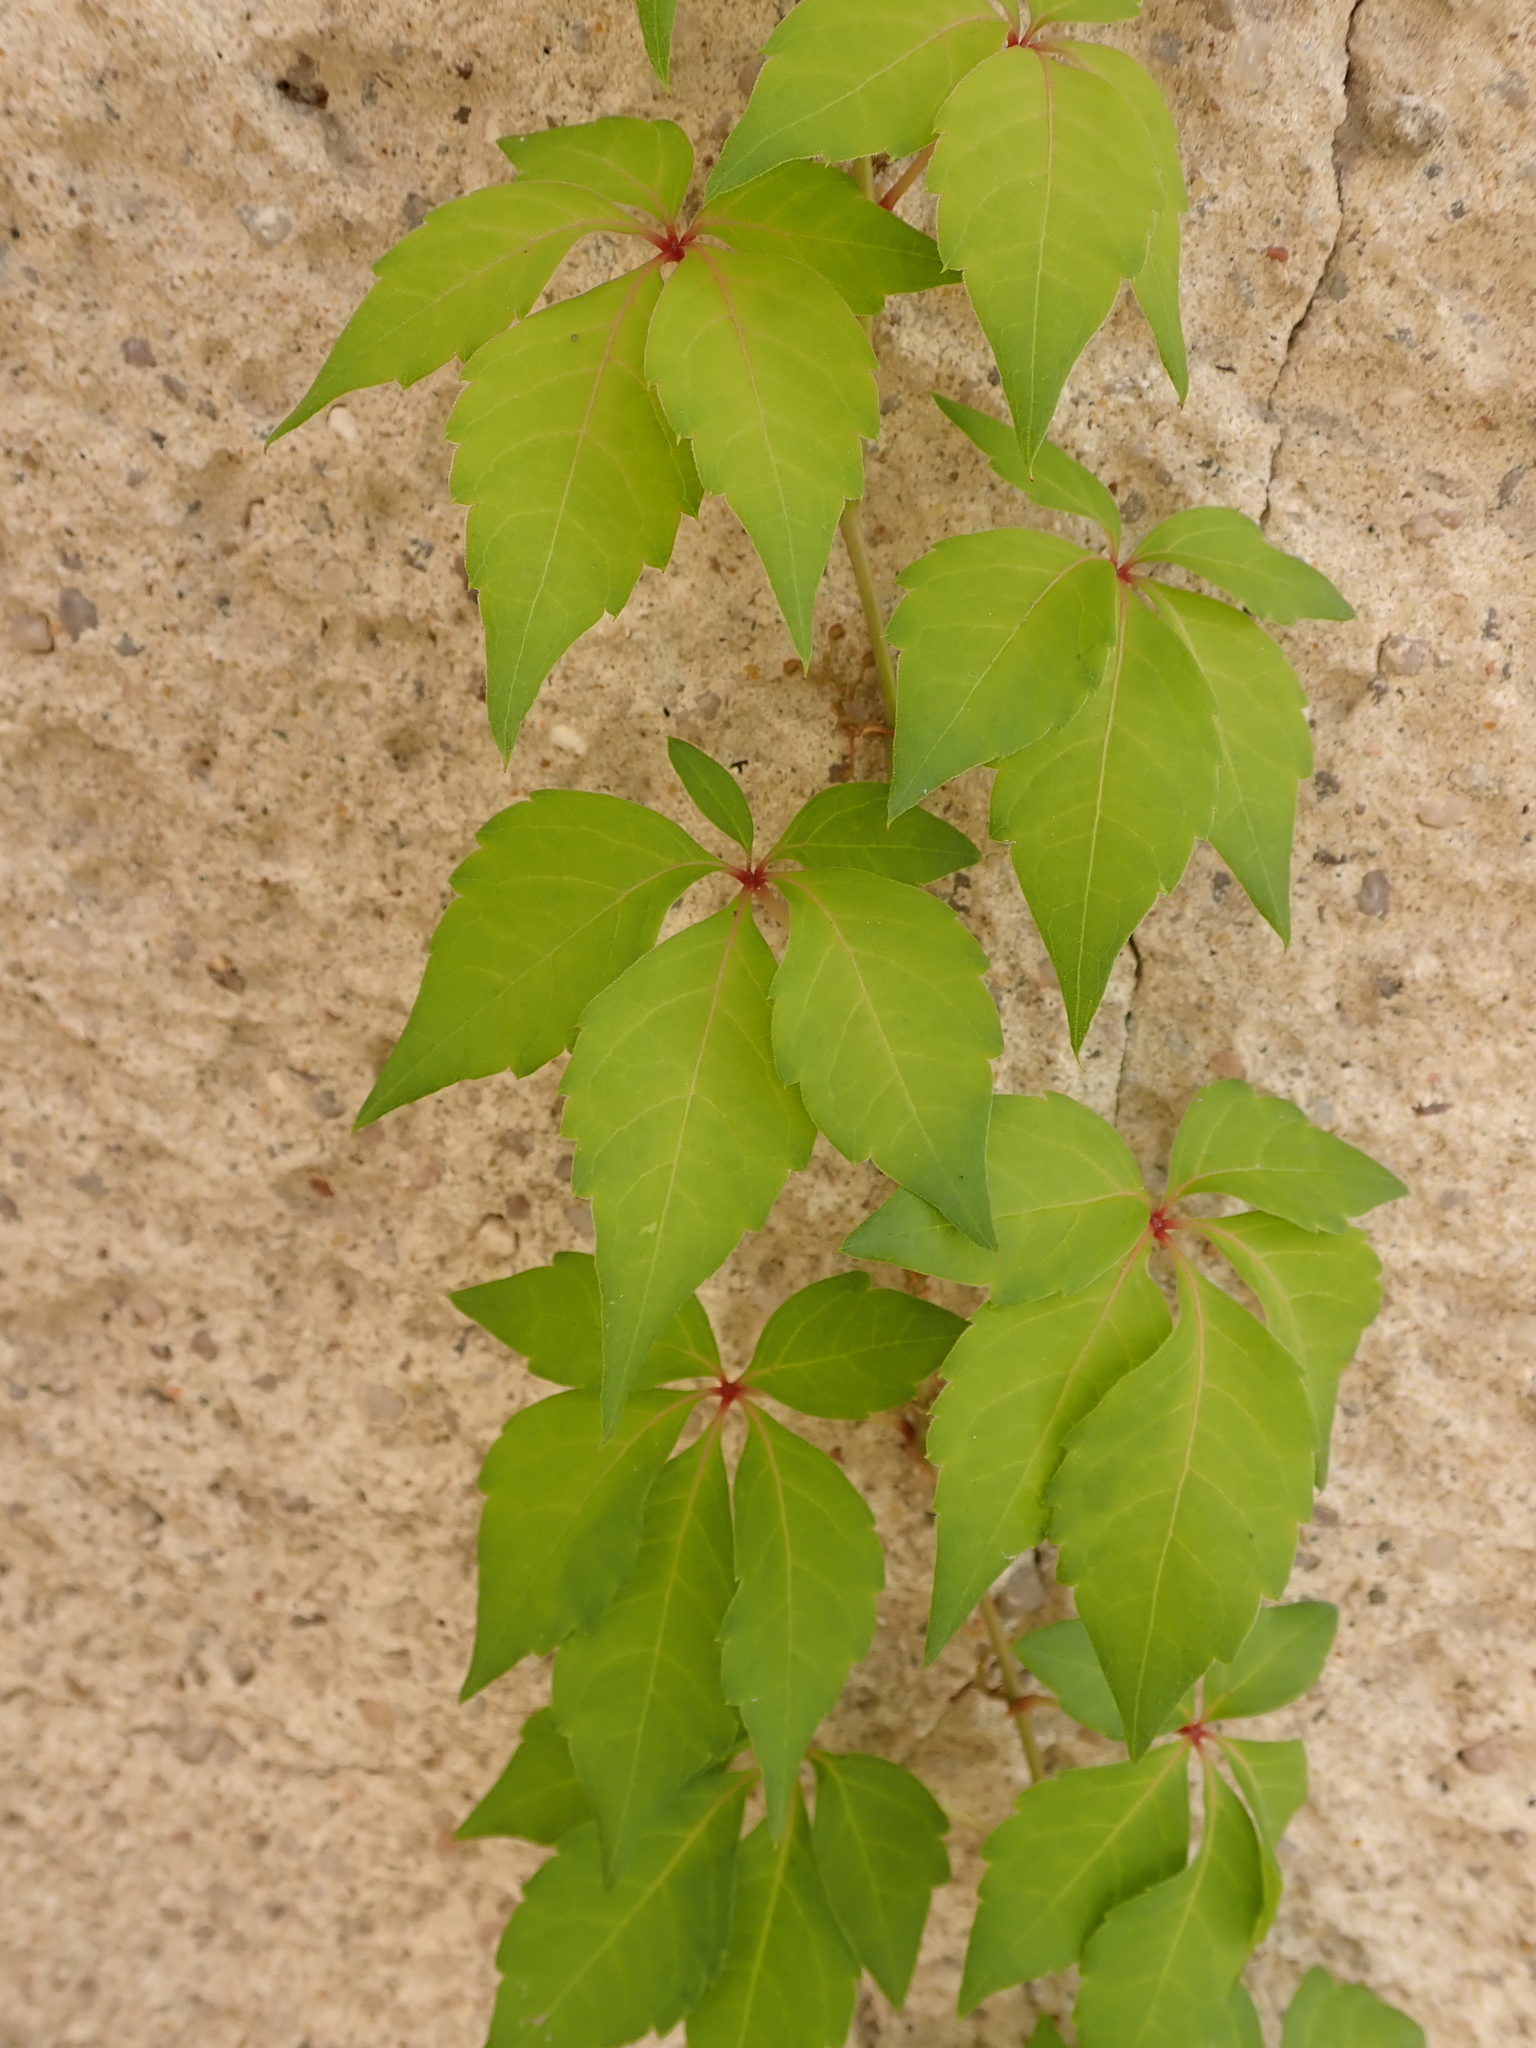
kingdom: Plantae
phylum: Tracheophyta
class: Magnoliopsida
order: Vitales
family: Vitaceae
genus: Parthenocissus
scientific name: Parthenocissus quinquefolia
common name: Virginia-creeper
